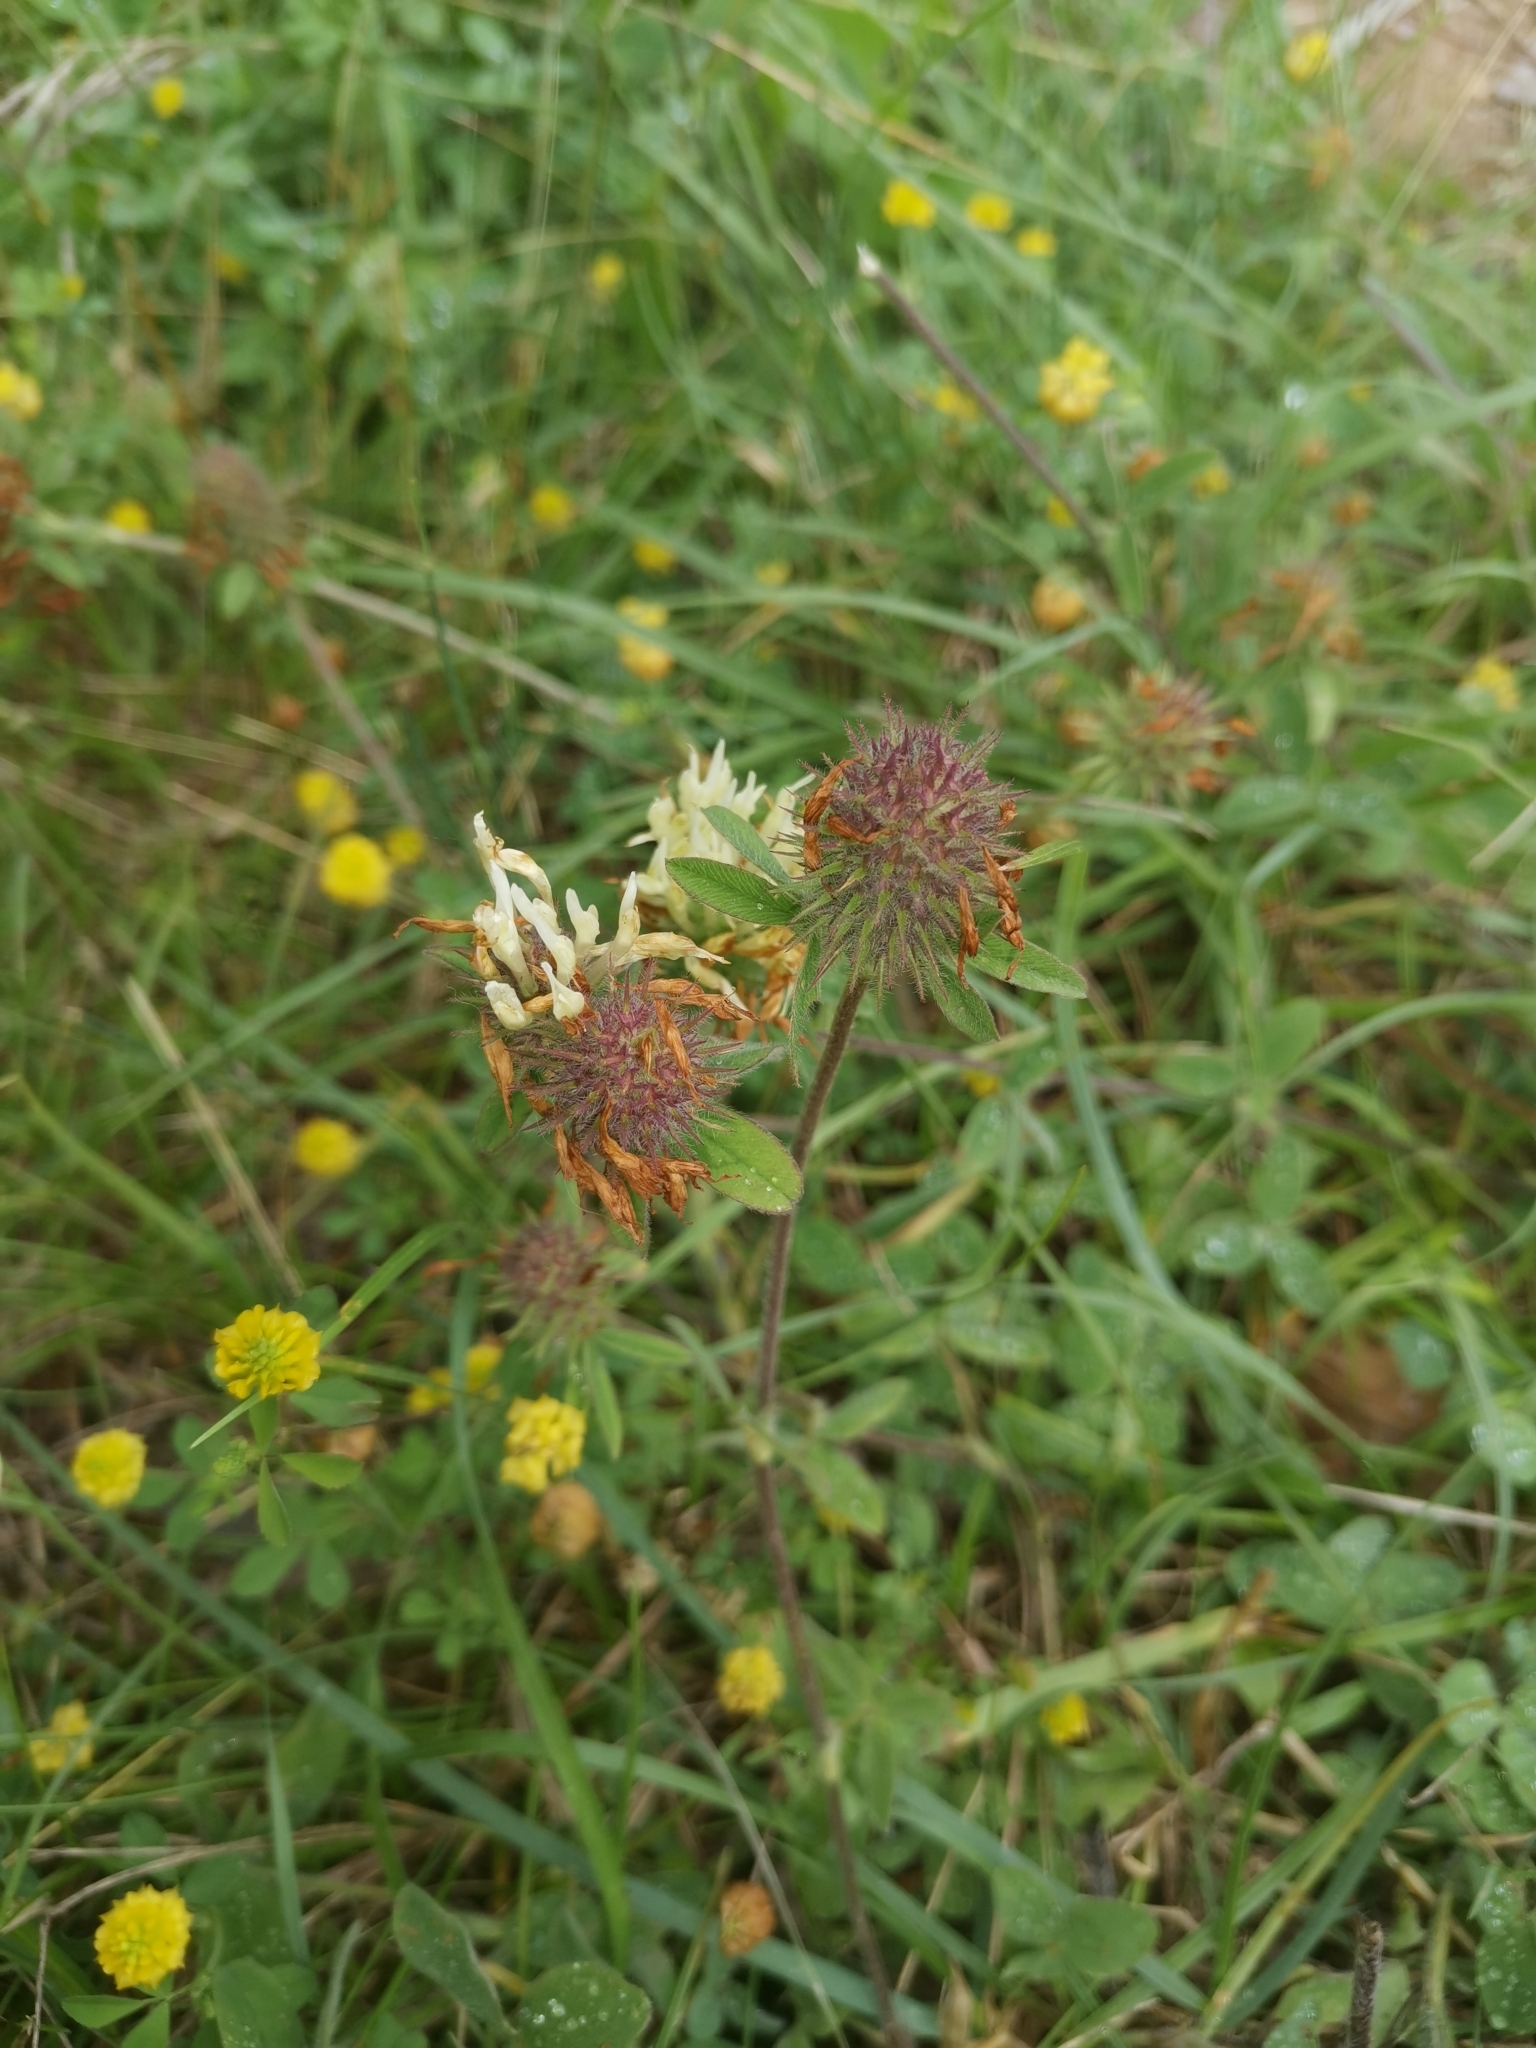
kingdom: Plantae
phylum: Tracheophyta
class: Magnoliopsida
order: Fabales
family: Fabaceae
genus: Trifolium
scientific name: Trifolium ochroleucon
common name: Sulphur clover
